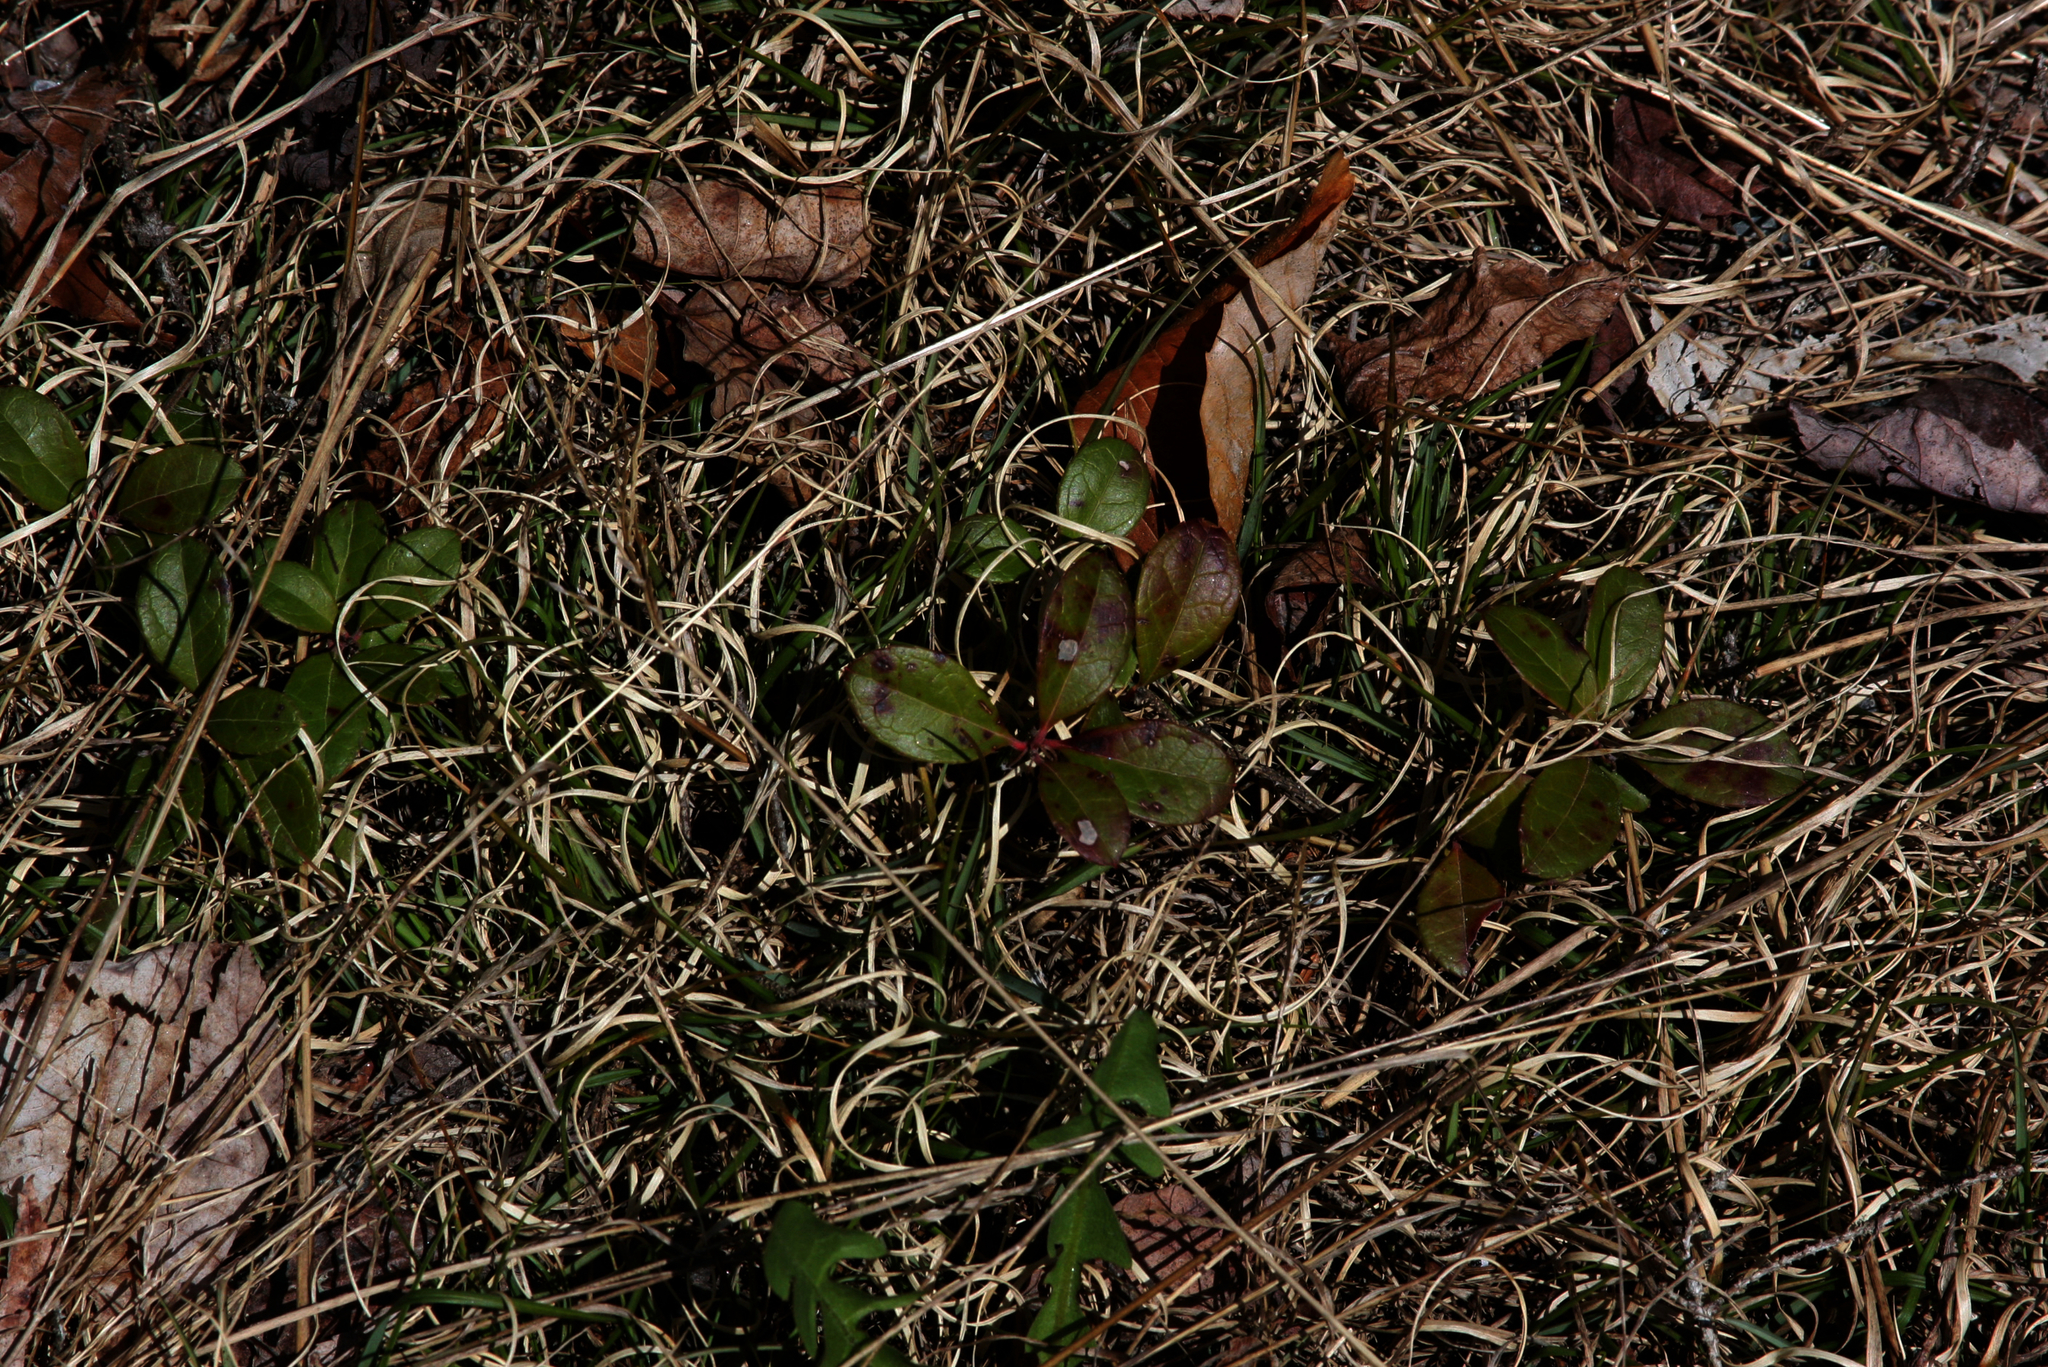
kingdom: Plantae
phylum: Tracheophyta
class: Magnoliopsida
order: Ericales
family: Ericaceae
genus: Gaultheria
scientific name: Gaultheria procumbens
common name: Checkerberry
